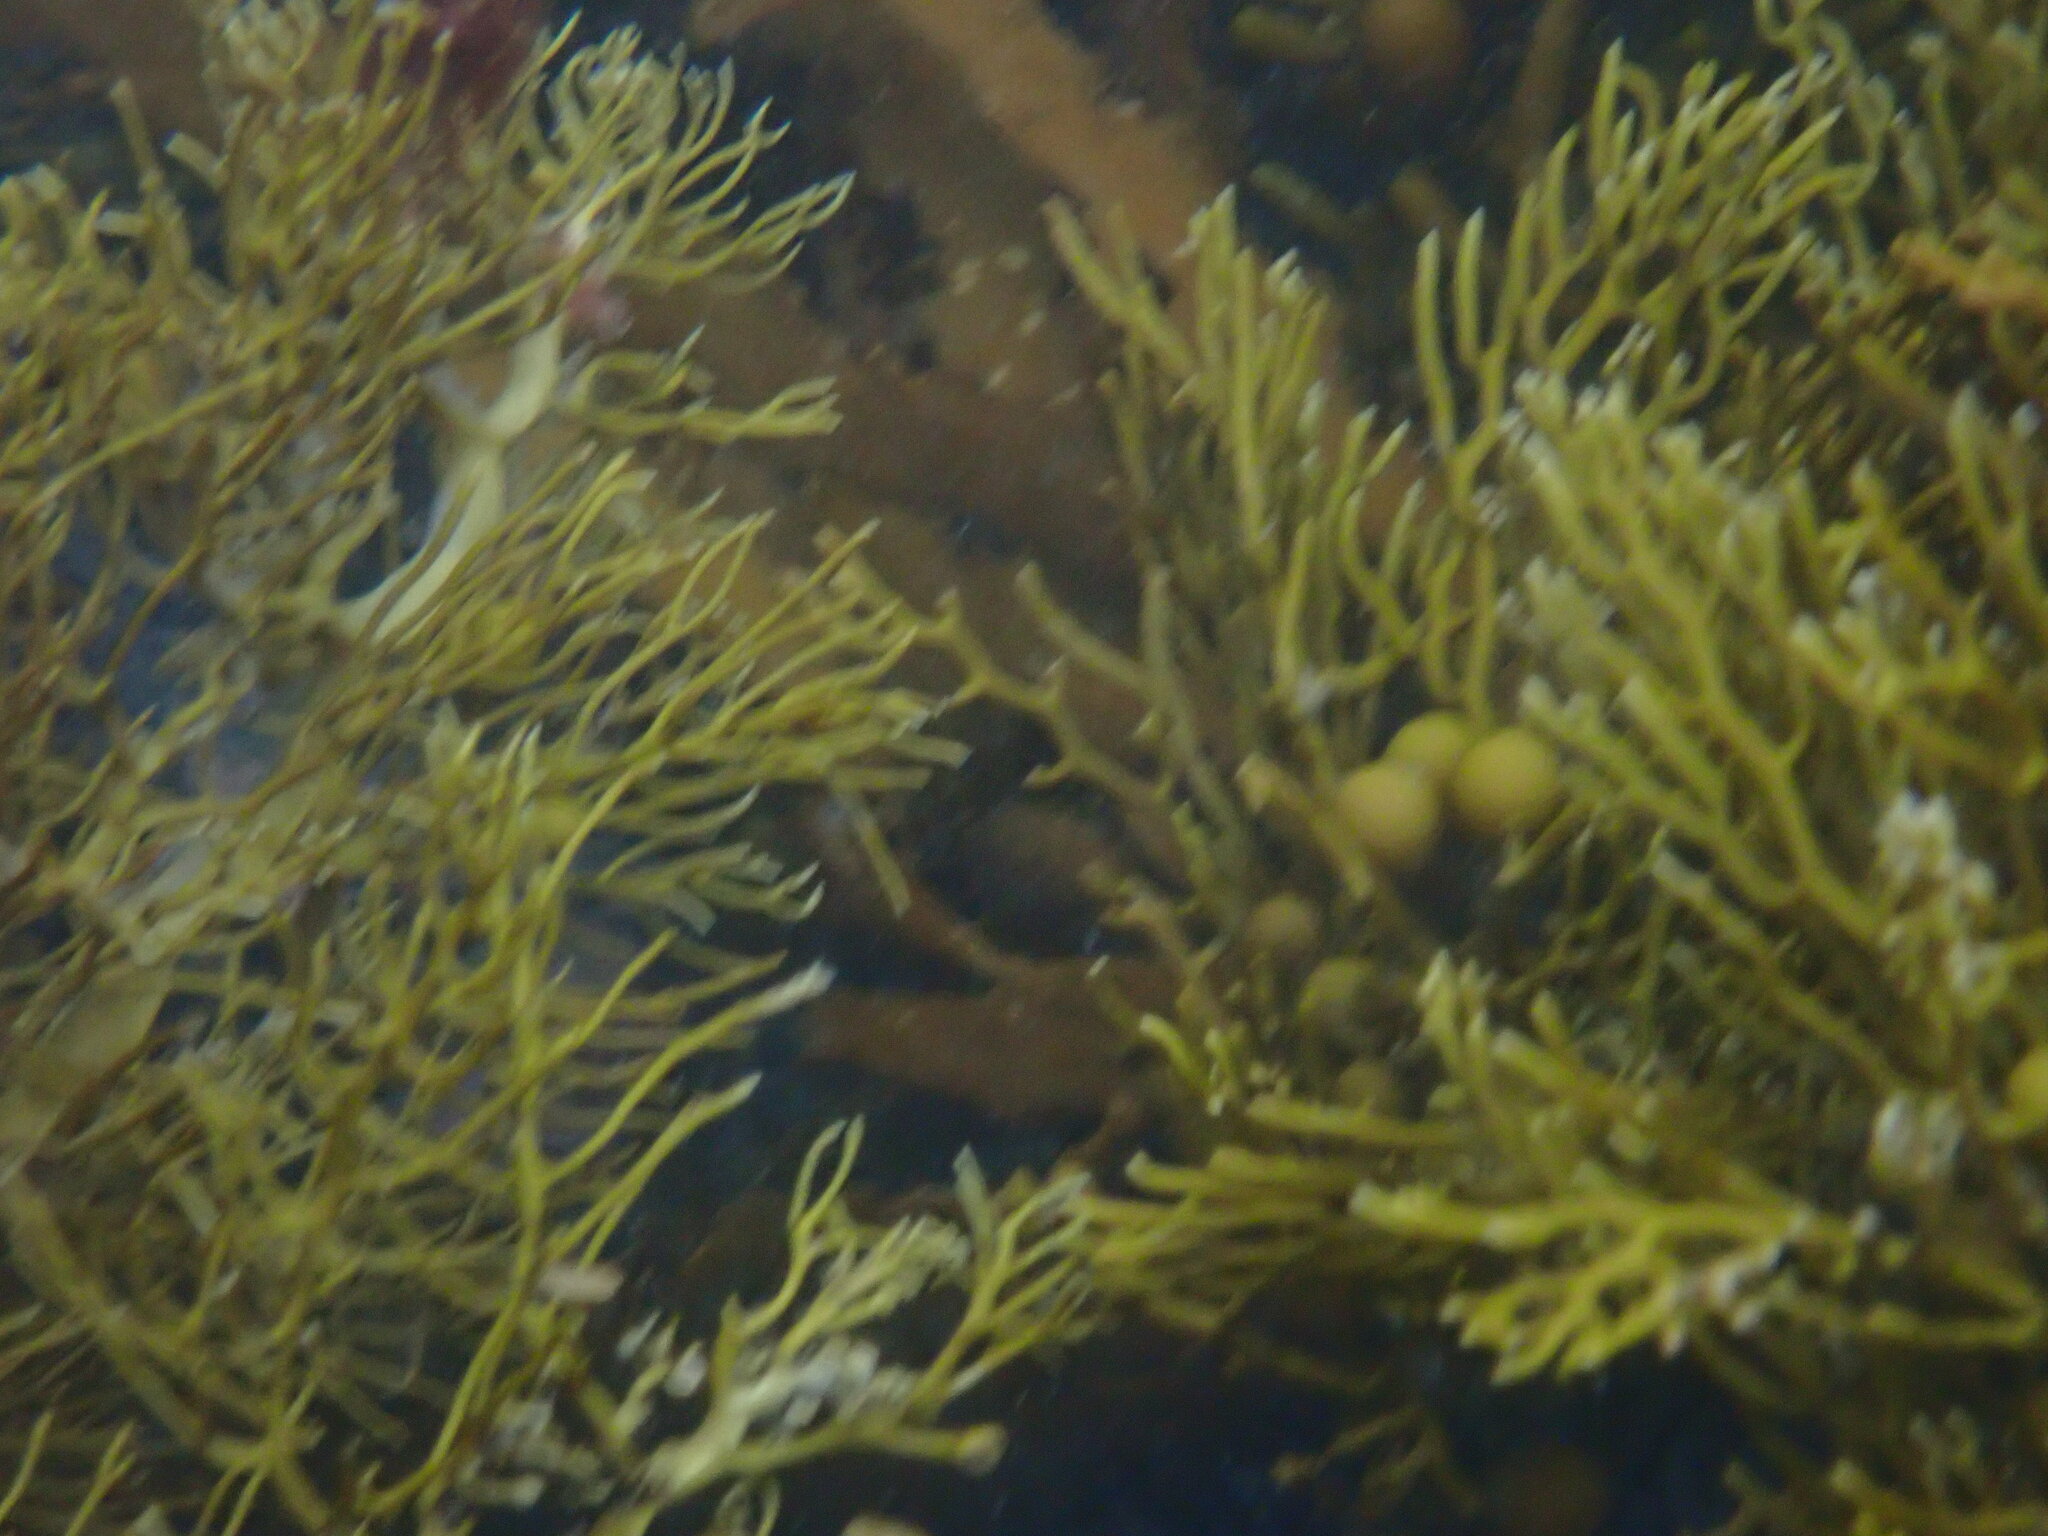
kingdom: Chromista
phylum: Ochrophyta
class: Phaeophyceae
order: Fucales
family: Sargassaceae
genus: Cystophora
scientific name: Cystophora retroflexa
